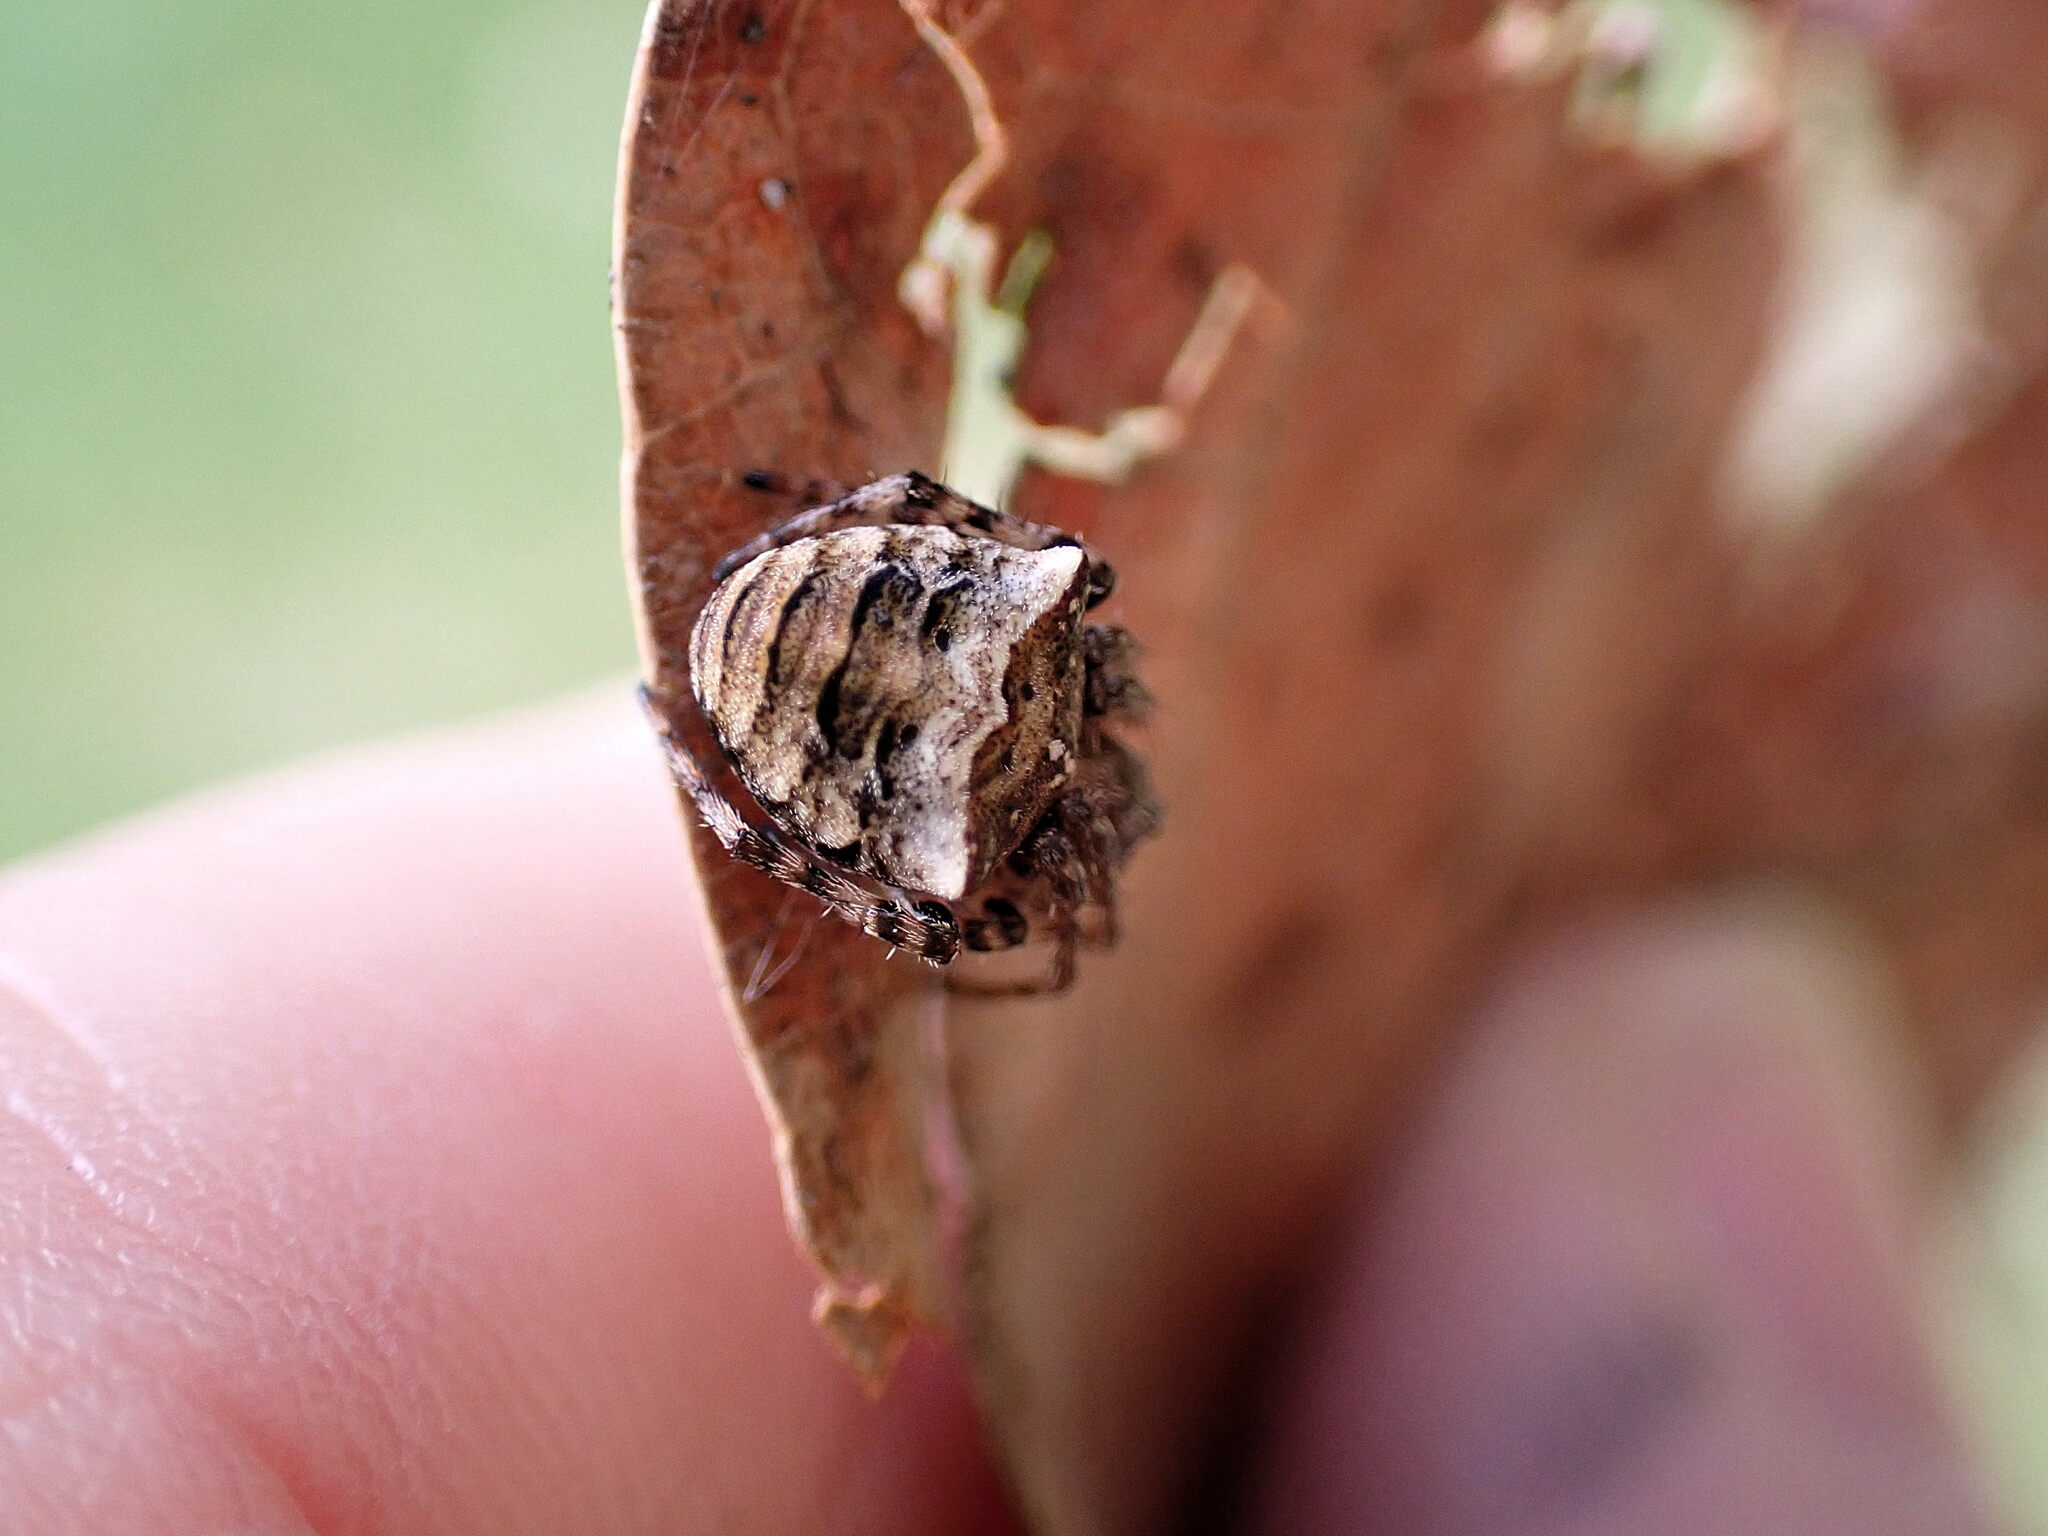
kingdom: Animalia
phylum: Arthropoda
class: Arachnida
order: Araneae
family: Araneidae
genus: Gibbaranea
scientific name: Gibbaranea bituberculata
